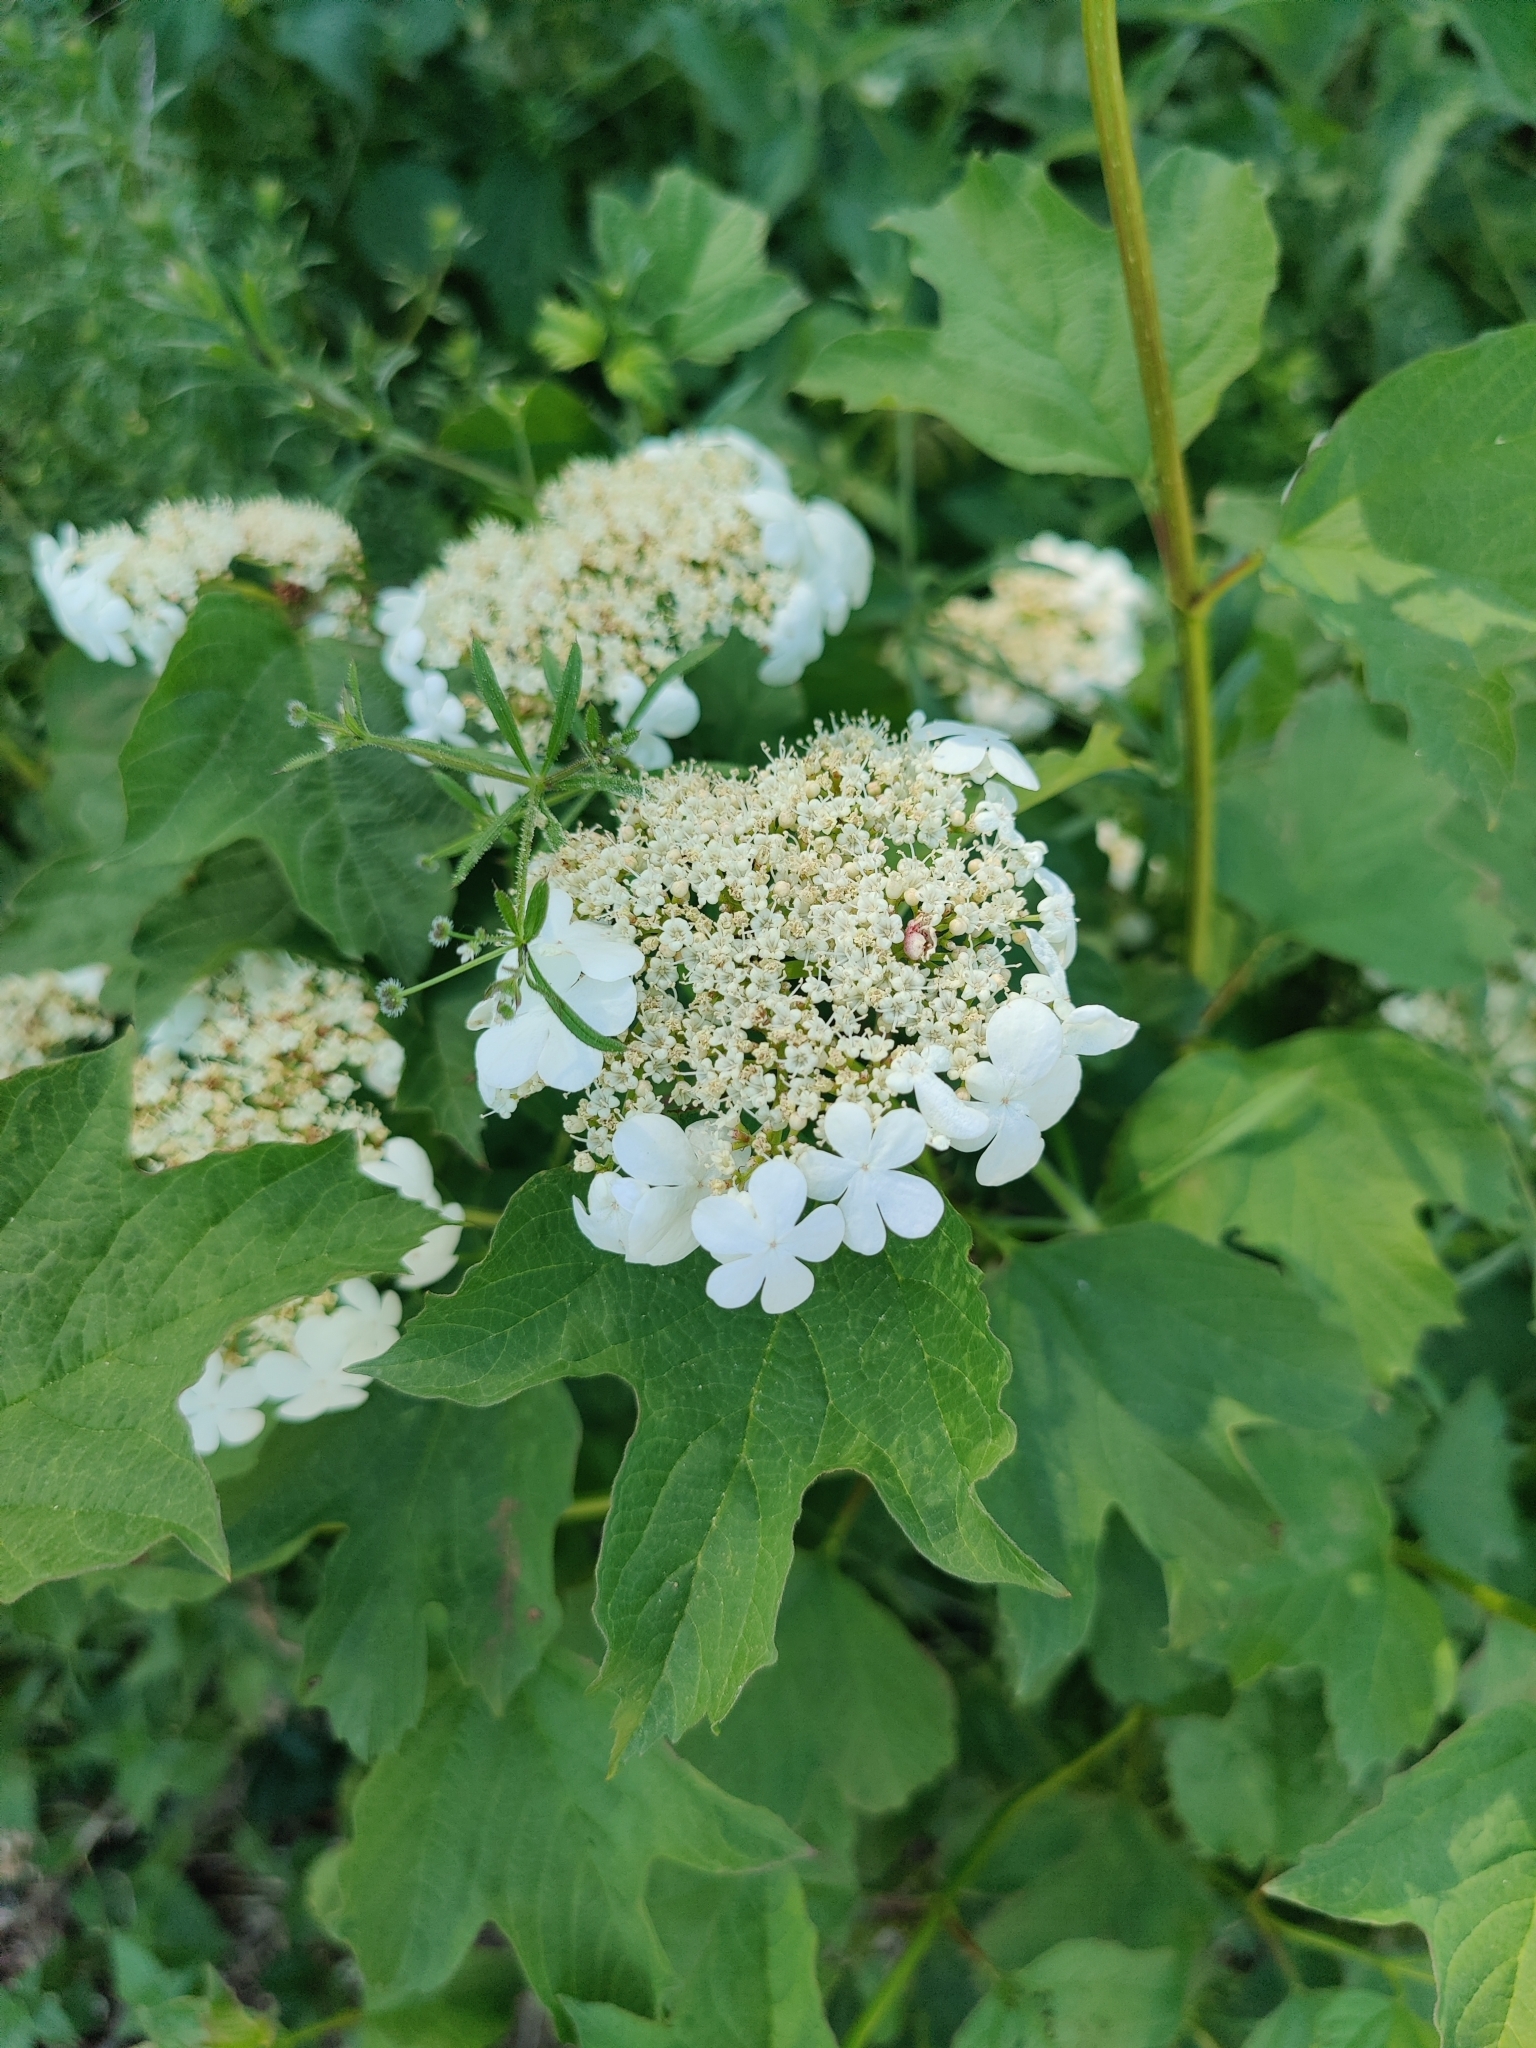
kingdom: Plantae
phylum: Tracheophyta
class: Magnoliopsida
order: Dipsacales
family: Viburnaceae
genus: Viburnum
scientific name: Viburnum opulus
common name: Guelder-rose
